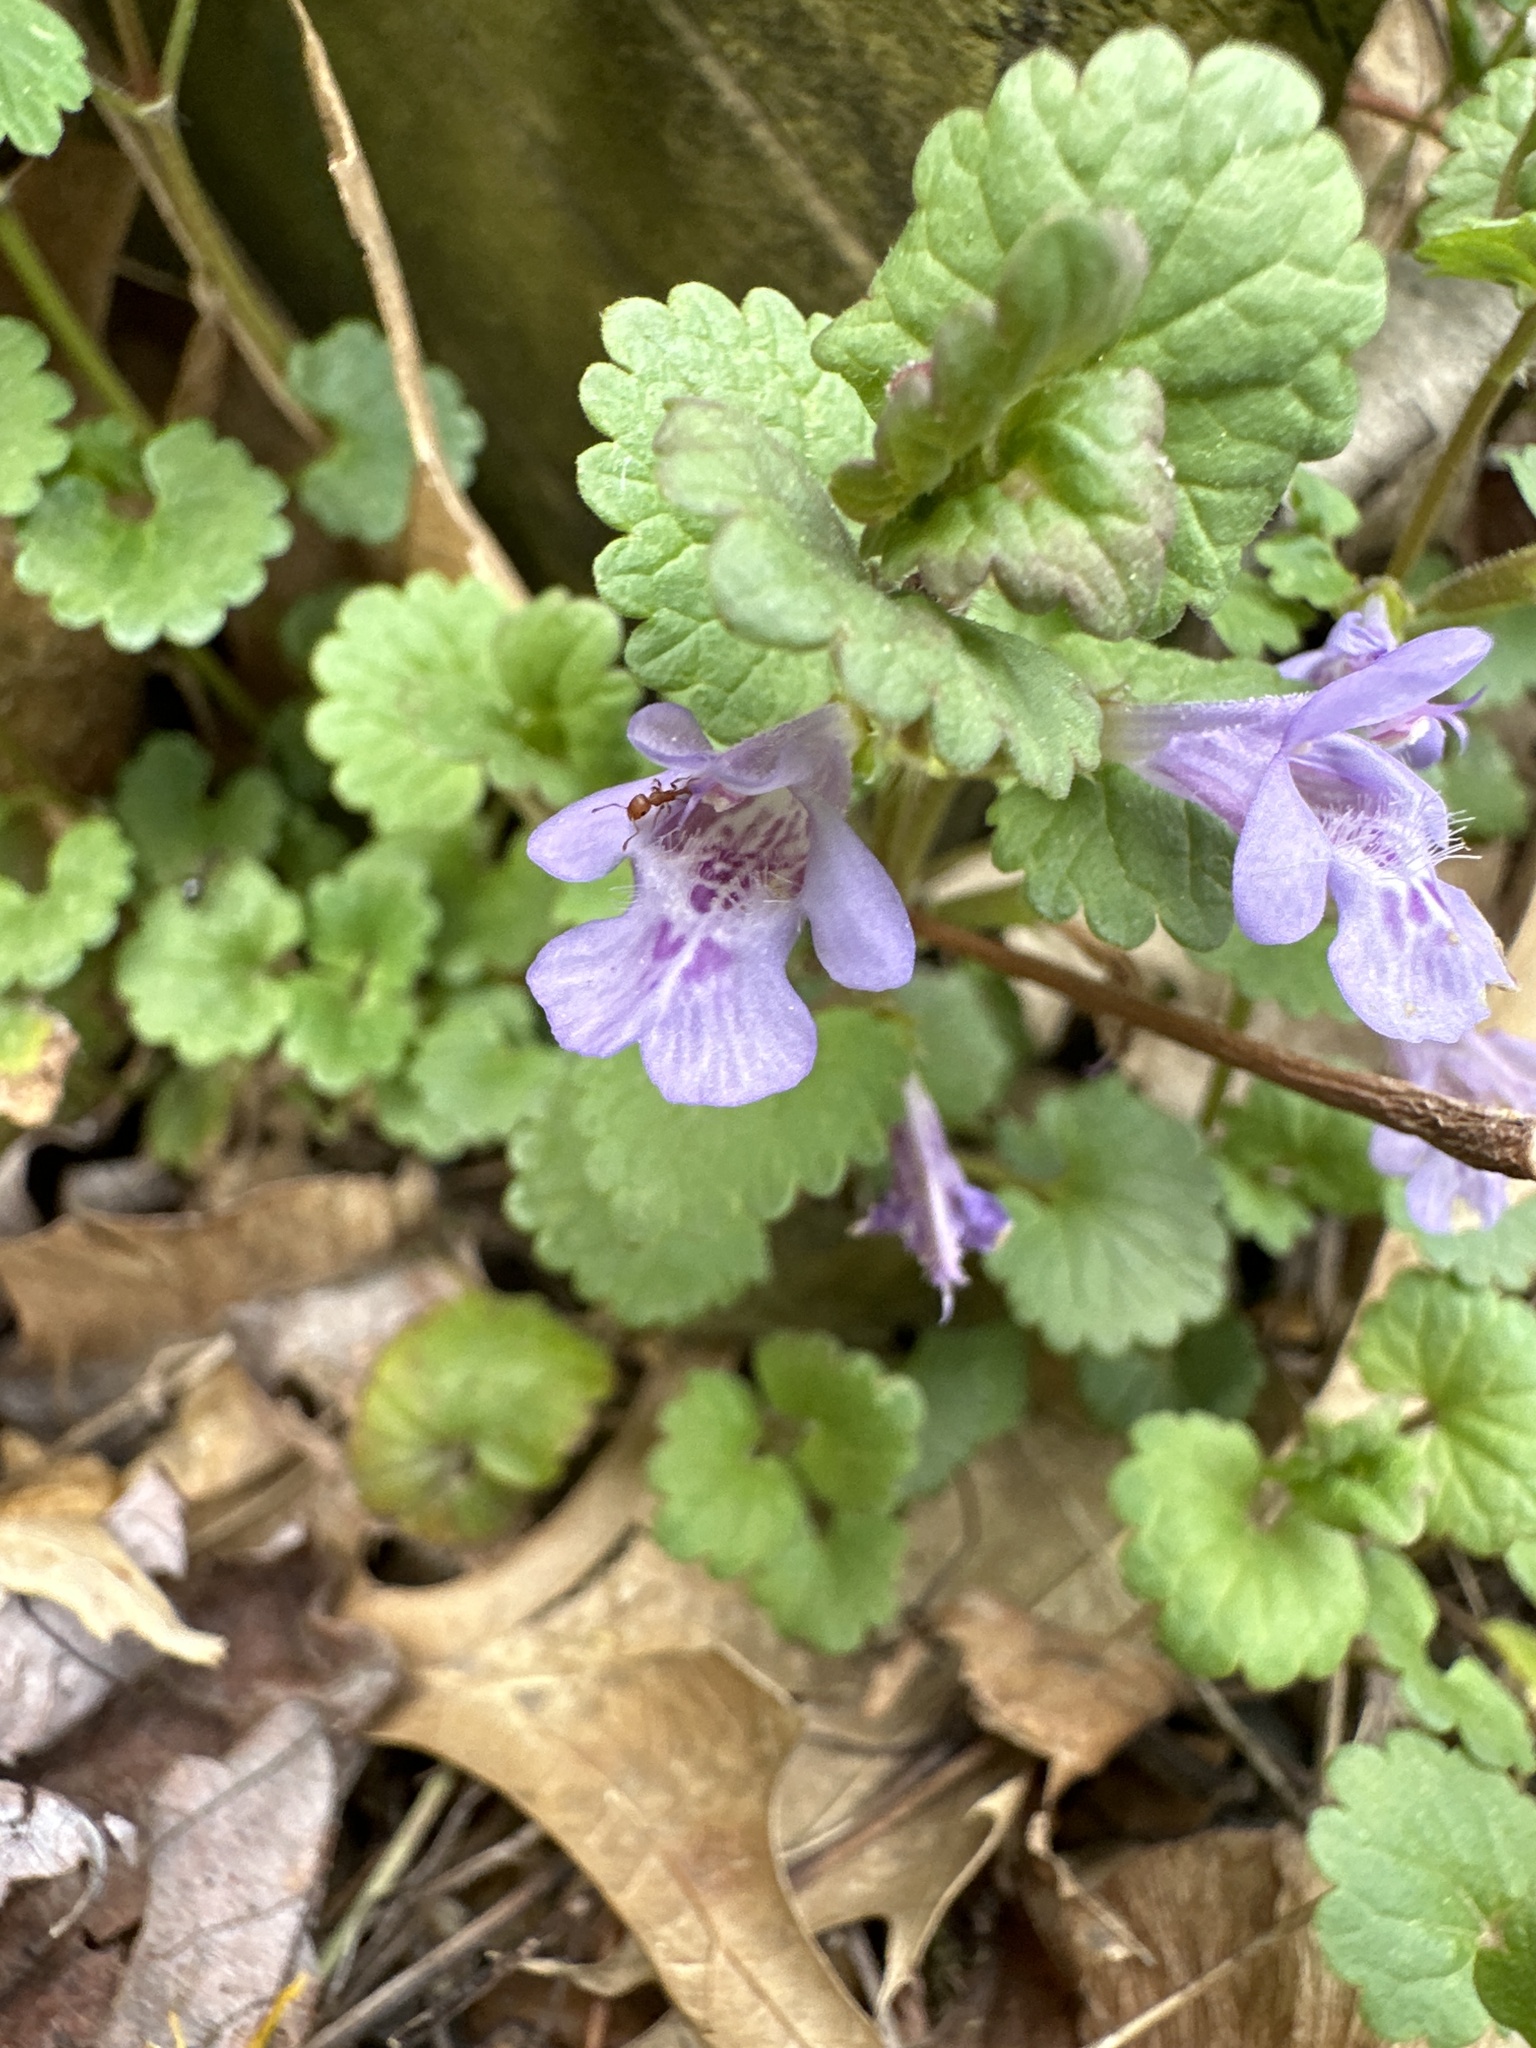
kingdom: Plantae
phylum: Tracheophyta
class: Magnoliopsida
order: Lamiales
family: Lamiaceae
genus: Glechoma
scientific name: Glechoma hederacea
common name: Ground ivy
